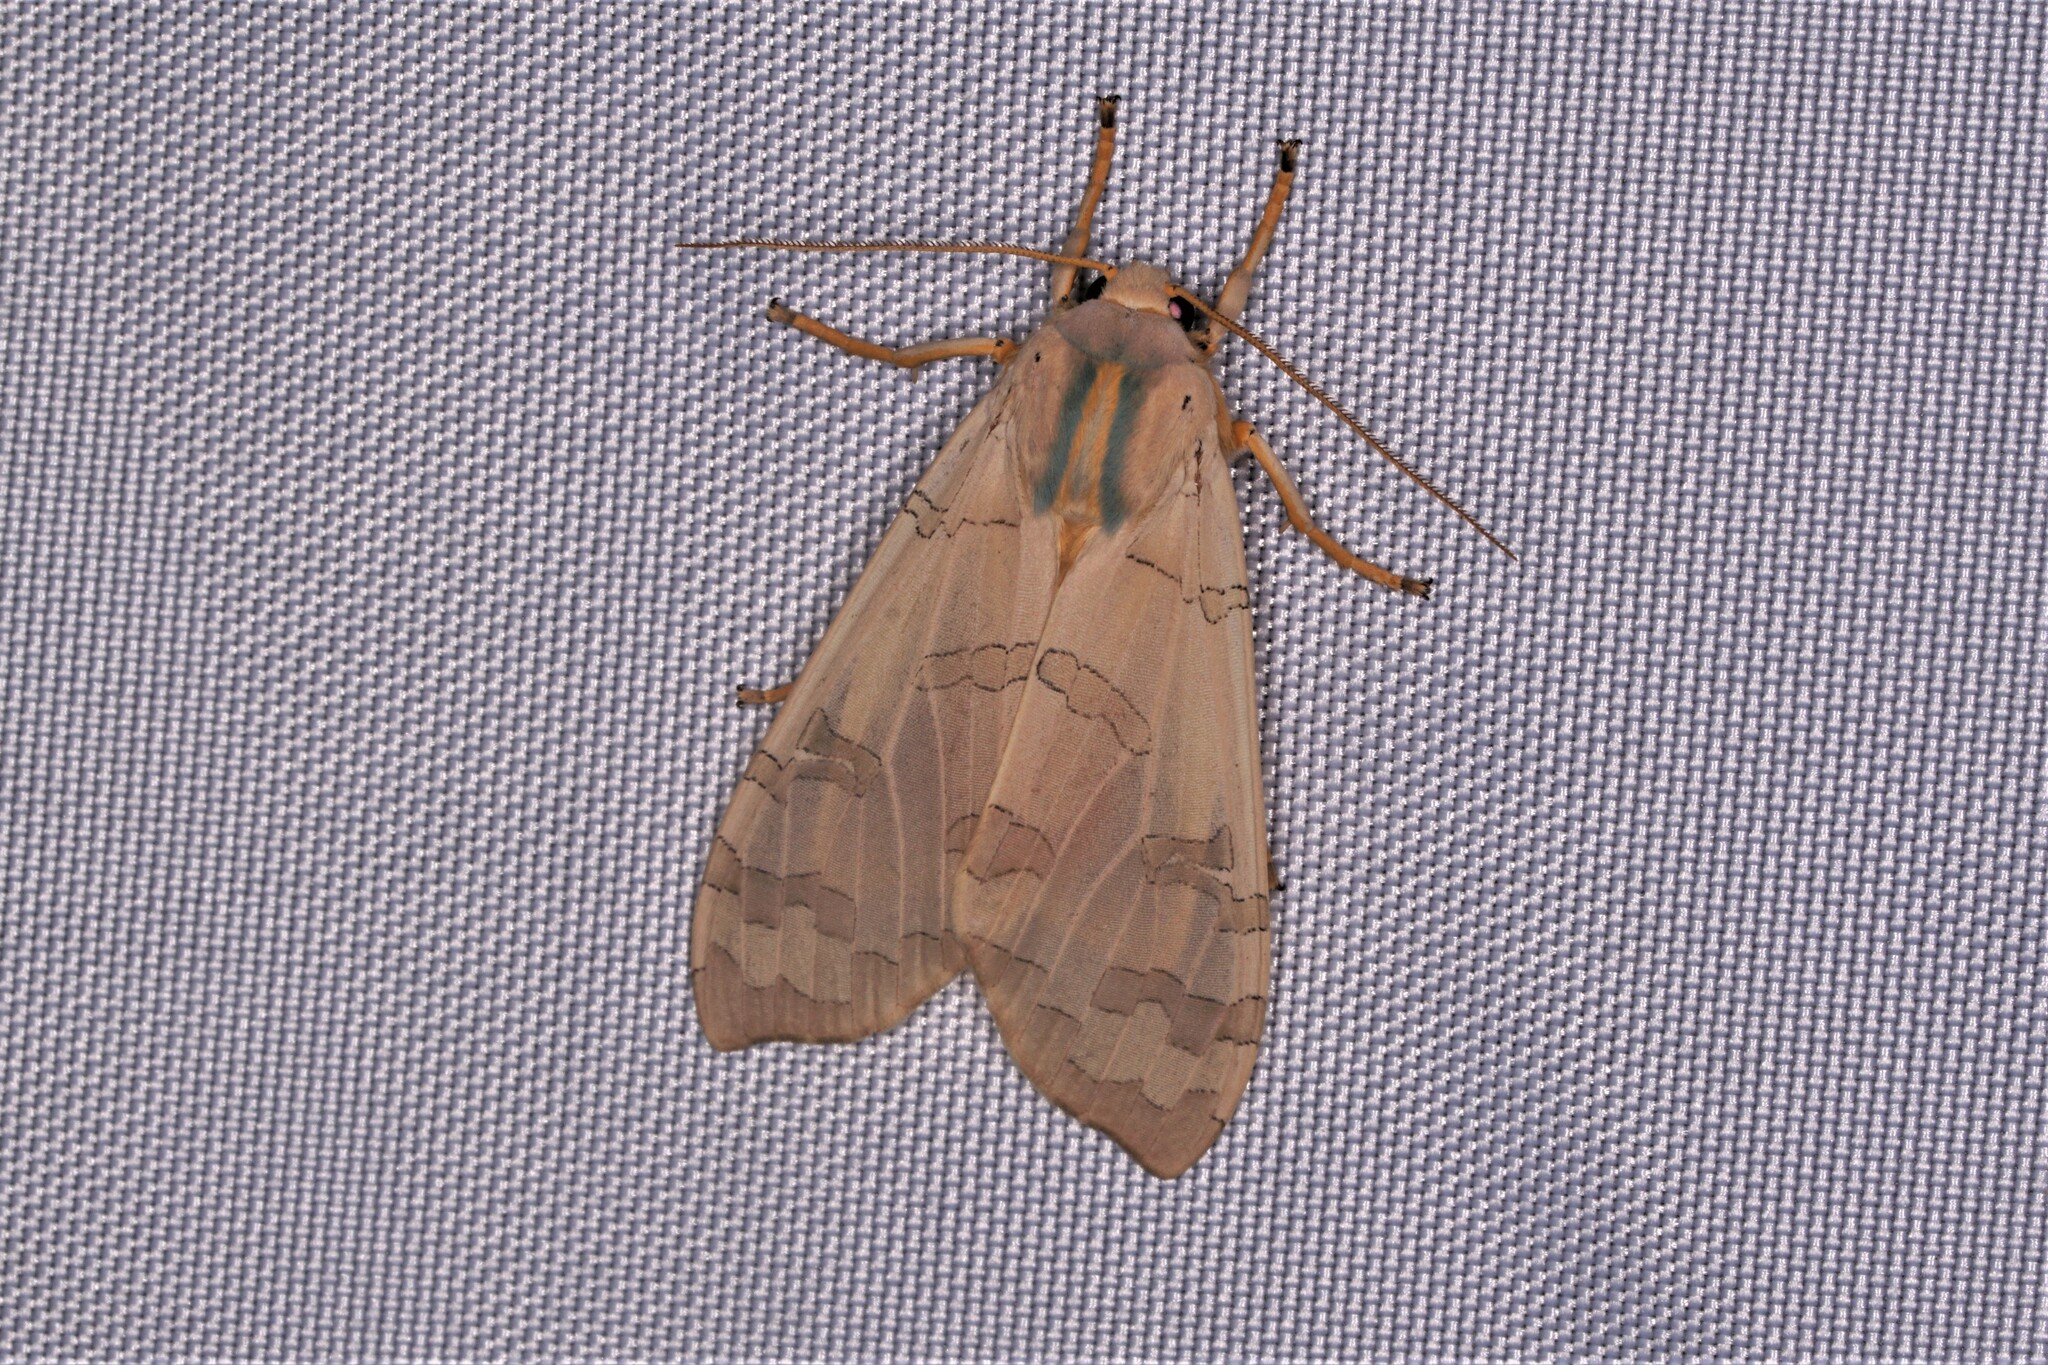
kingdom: Animalia
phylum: Arthropoda
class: Insecta
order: Lepidoptera
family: Erebidae
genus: Halysidota
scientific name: Halysidota
